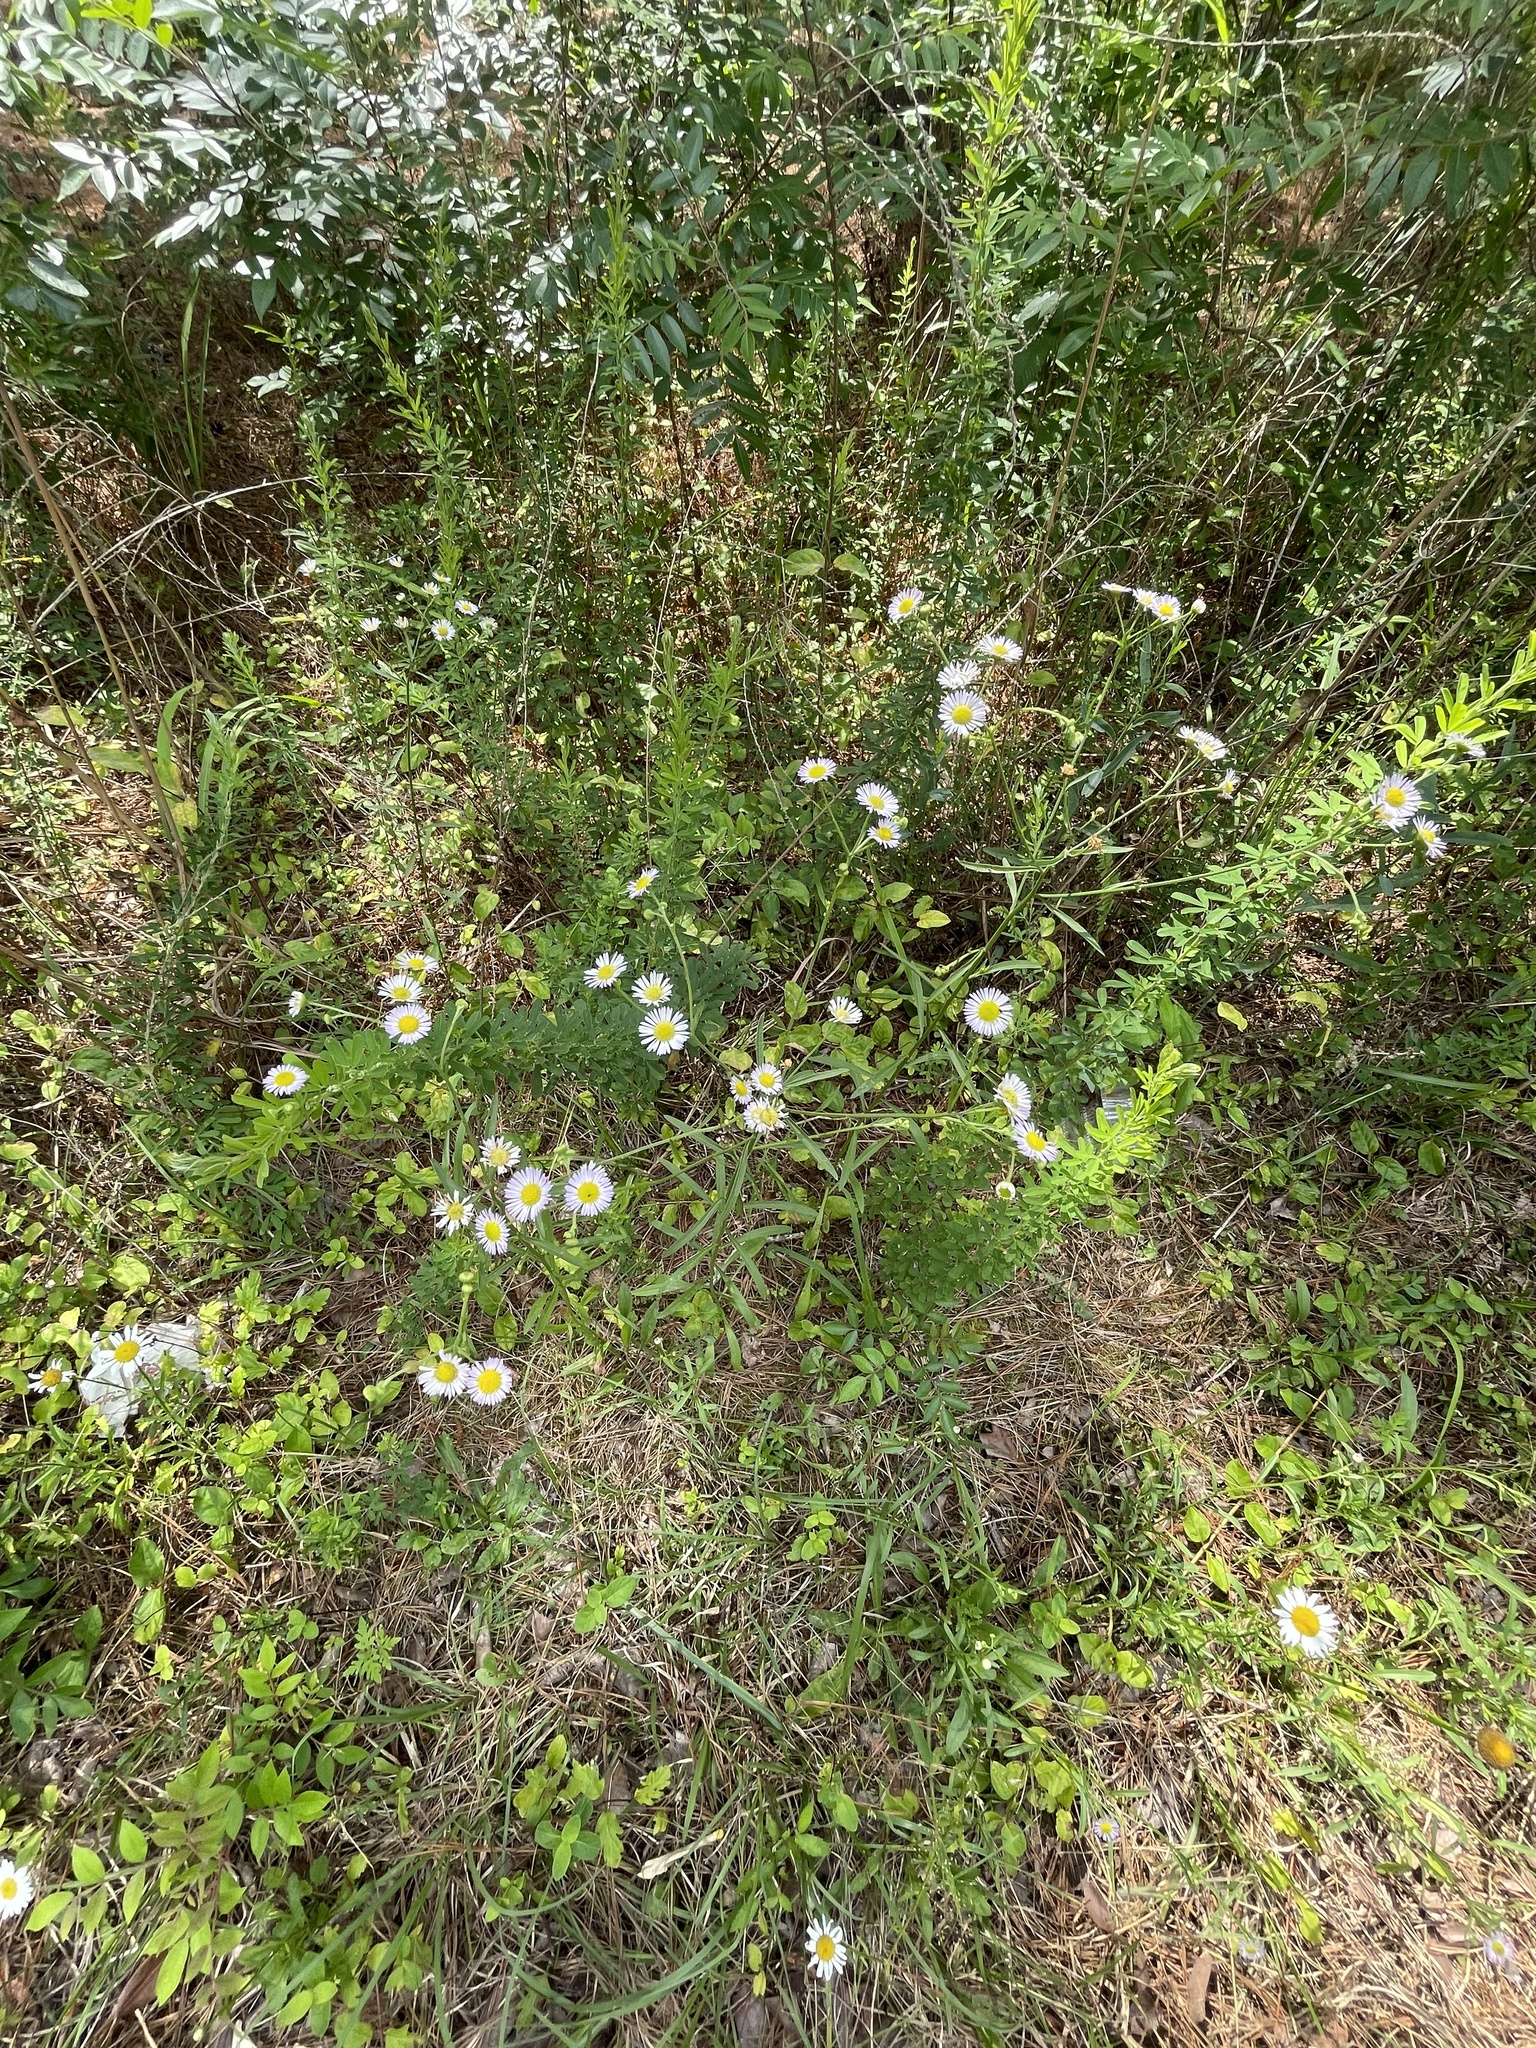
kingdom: Plantae
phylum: Tracheophyta
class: Magnoliopsida
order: Asterales
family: Asteraceae
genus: Erigeron
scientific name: Erigeron strigosus
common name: Common eastern fleabane
